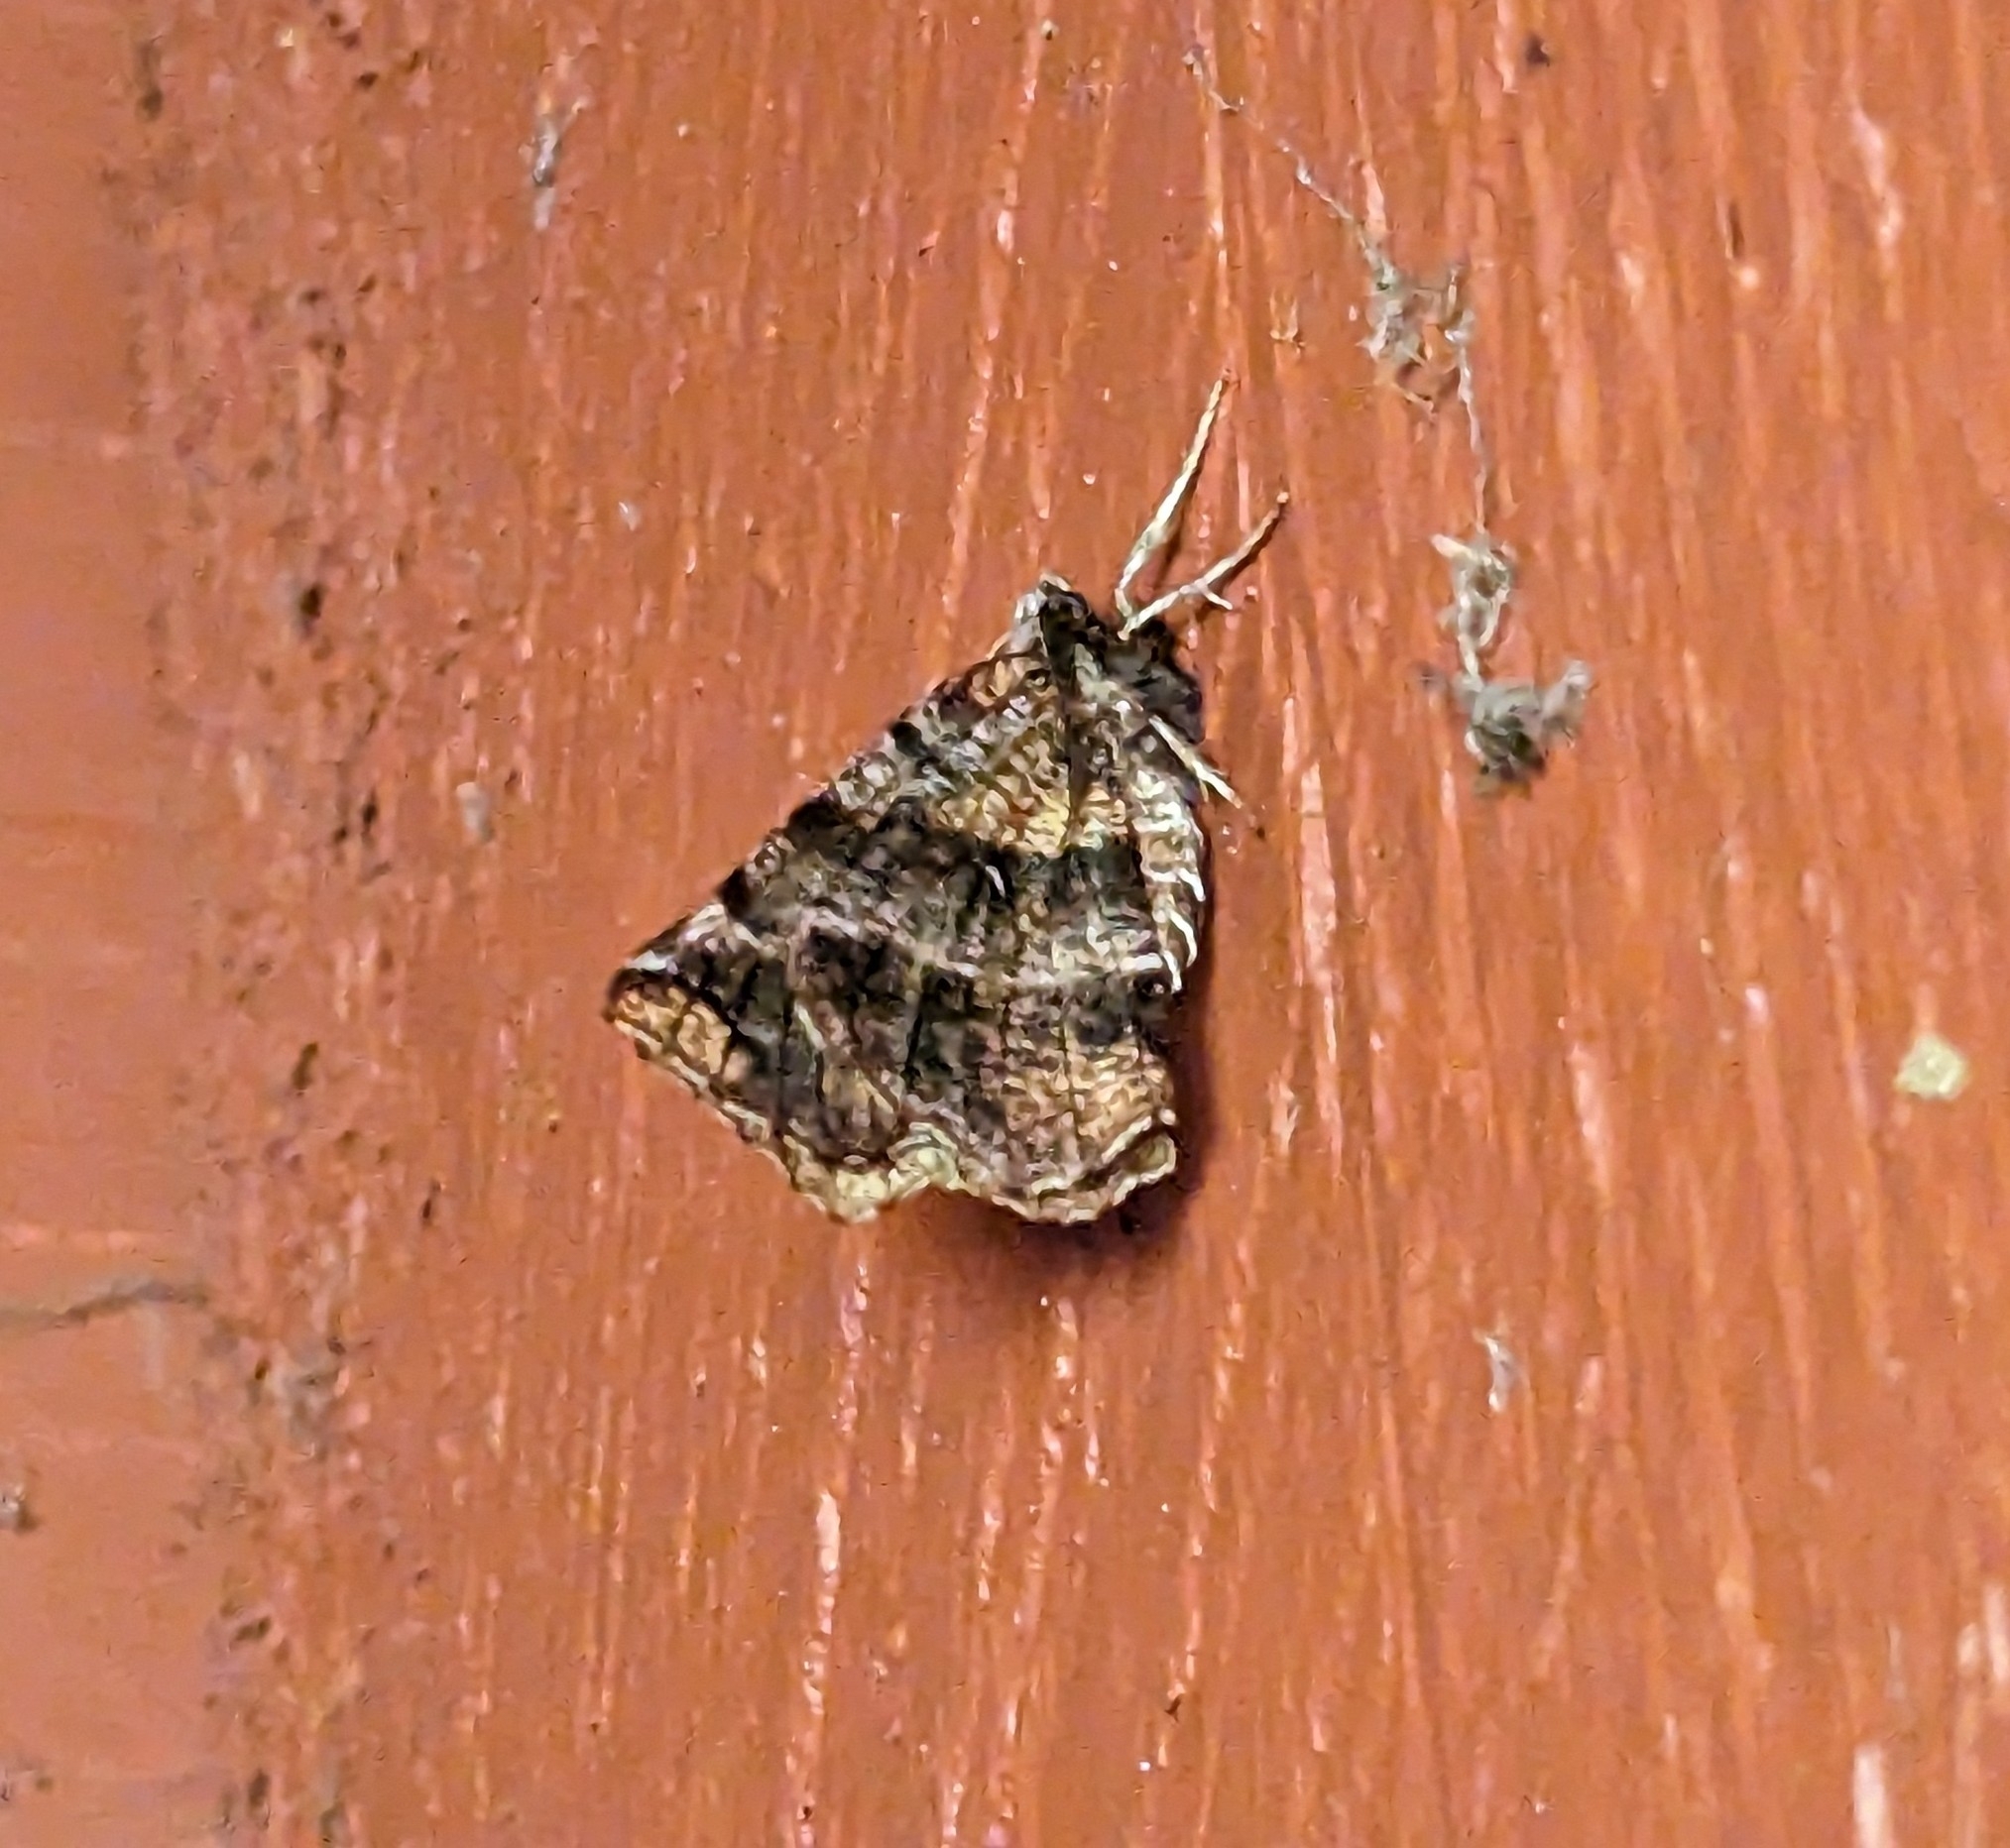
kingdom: Animalia
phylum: Arthropoda
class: Insecta
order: Lepidoptera
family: Geometridae
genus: Selenia
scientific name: Selenia alciphearia
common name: Brown-tipped thorn
